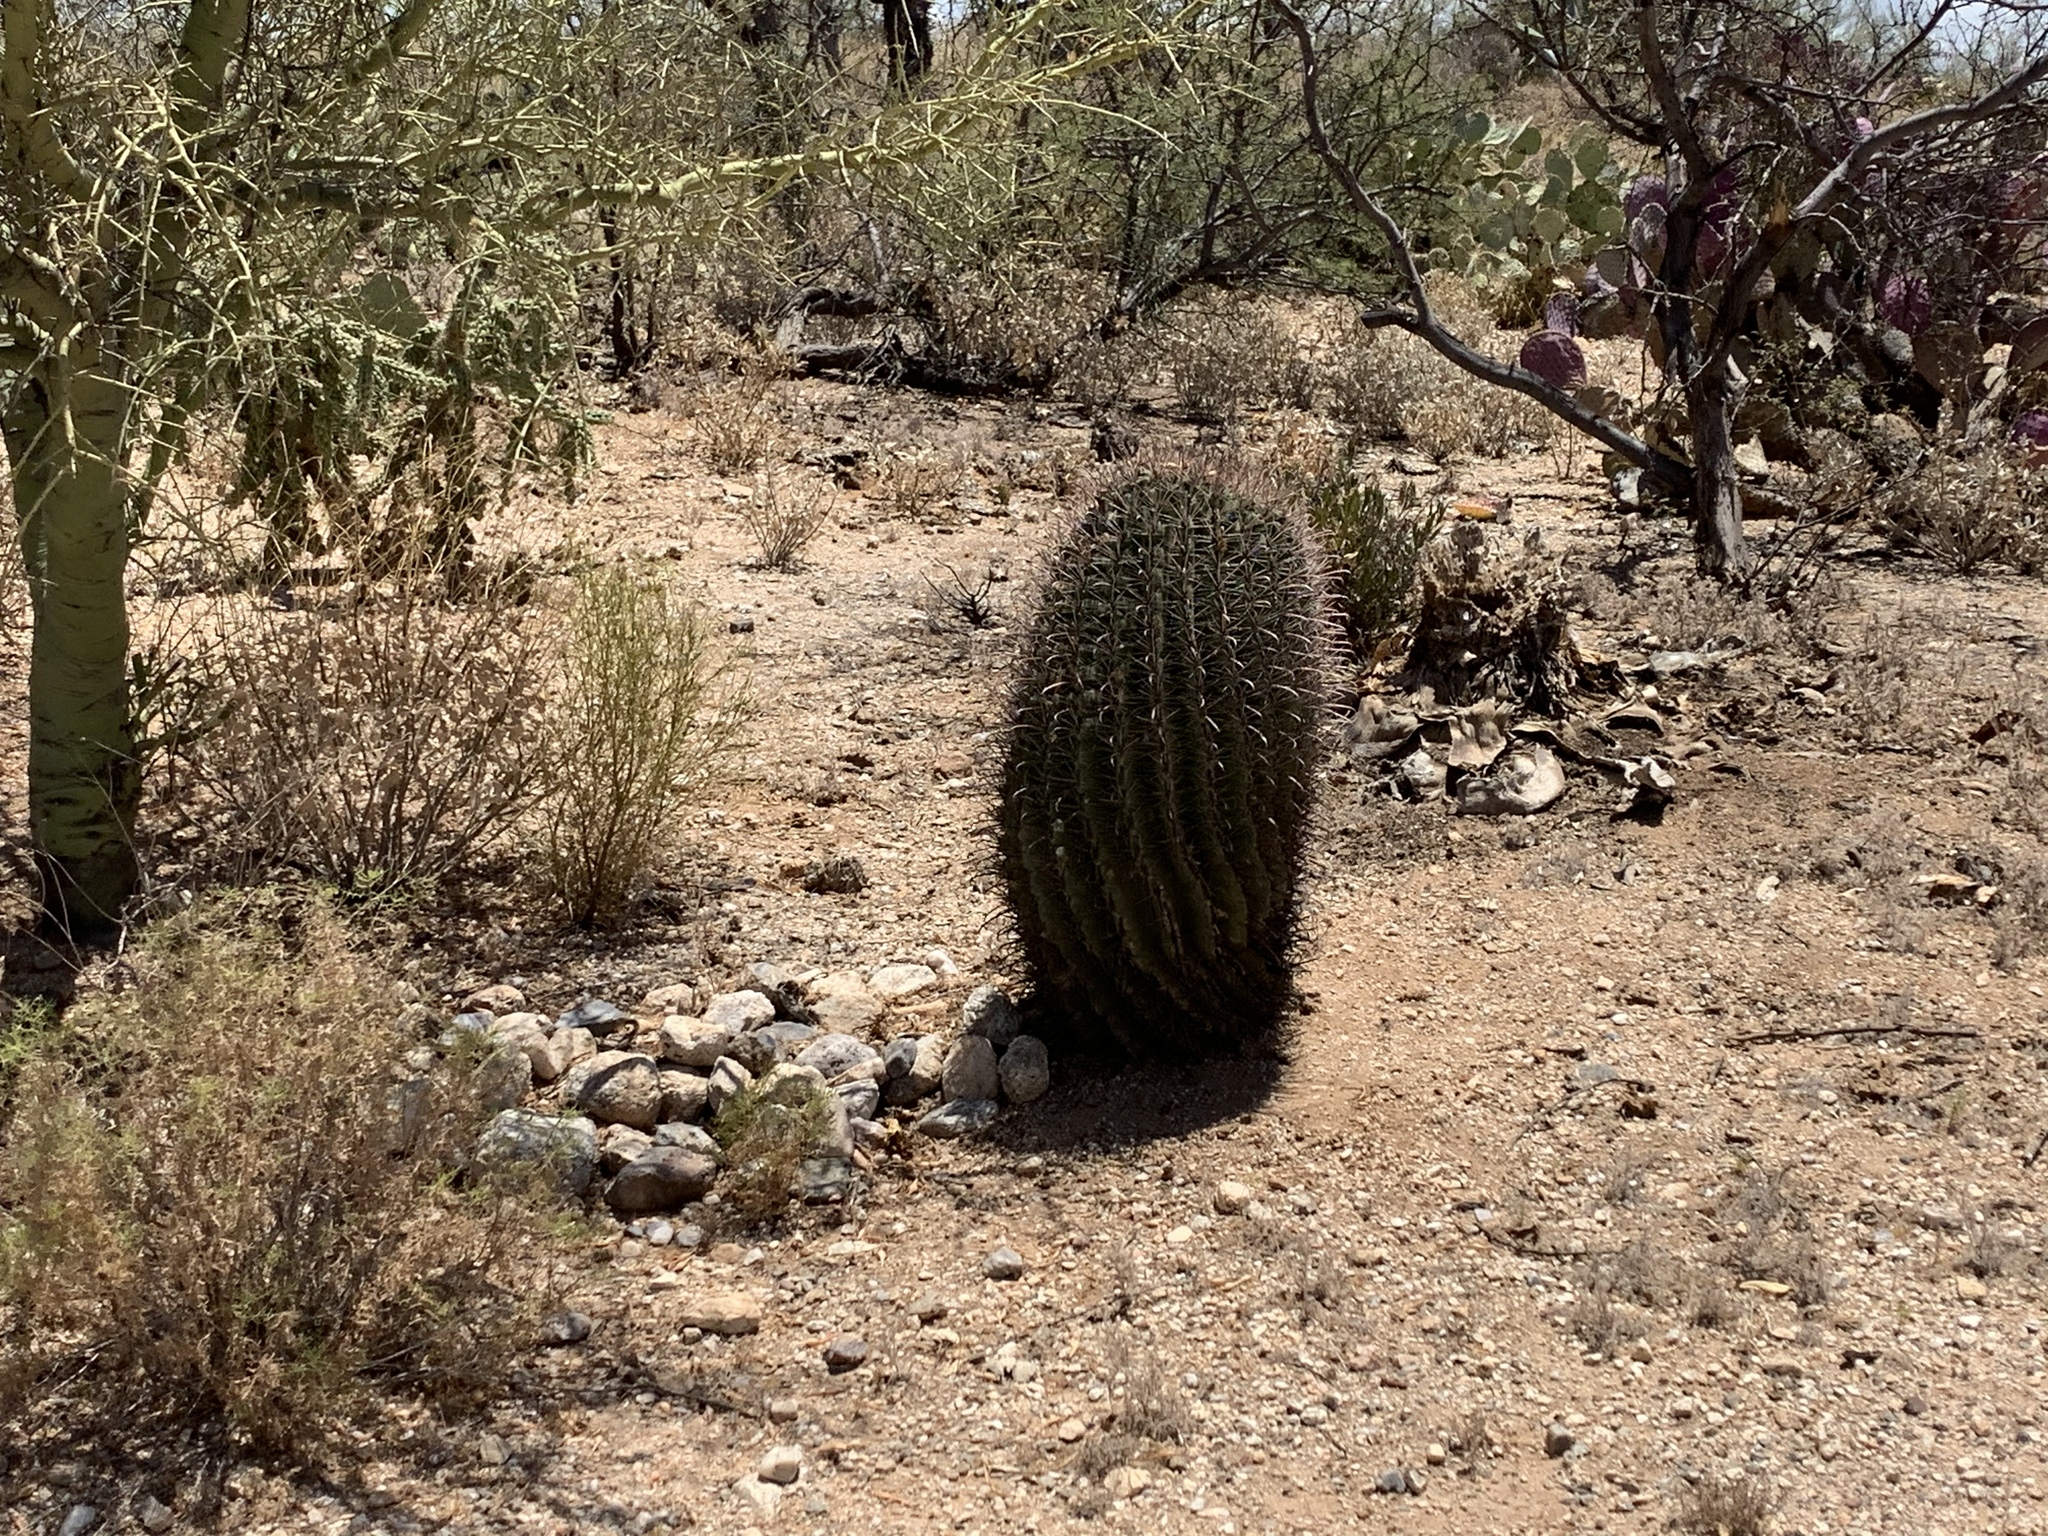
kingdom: Plantae
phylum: Tracheophyta
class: Magnoliopsida
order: Caryophyllales
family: Cactaceae
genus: Ferocactus
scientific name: Ferocactus wislizeni
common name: Candy barrel cactus
